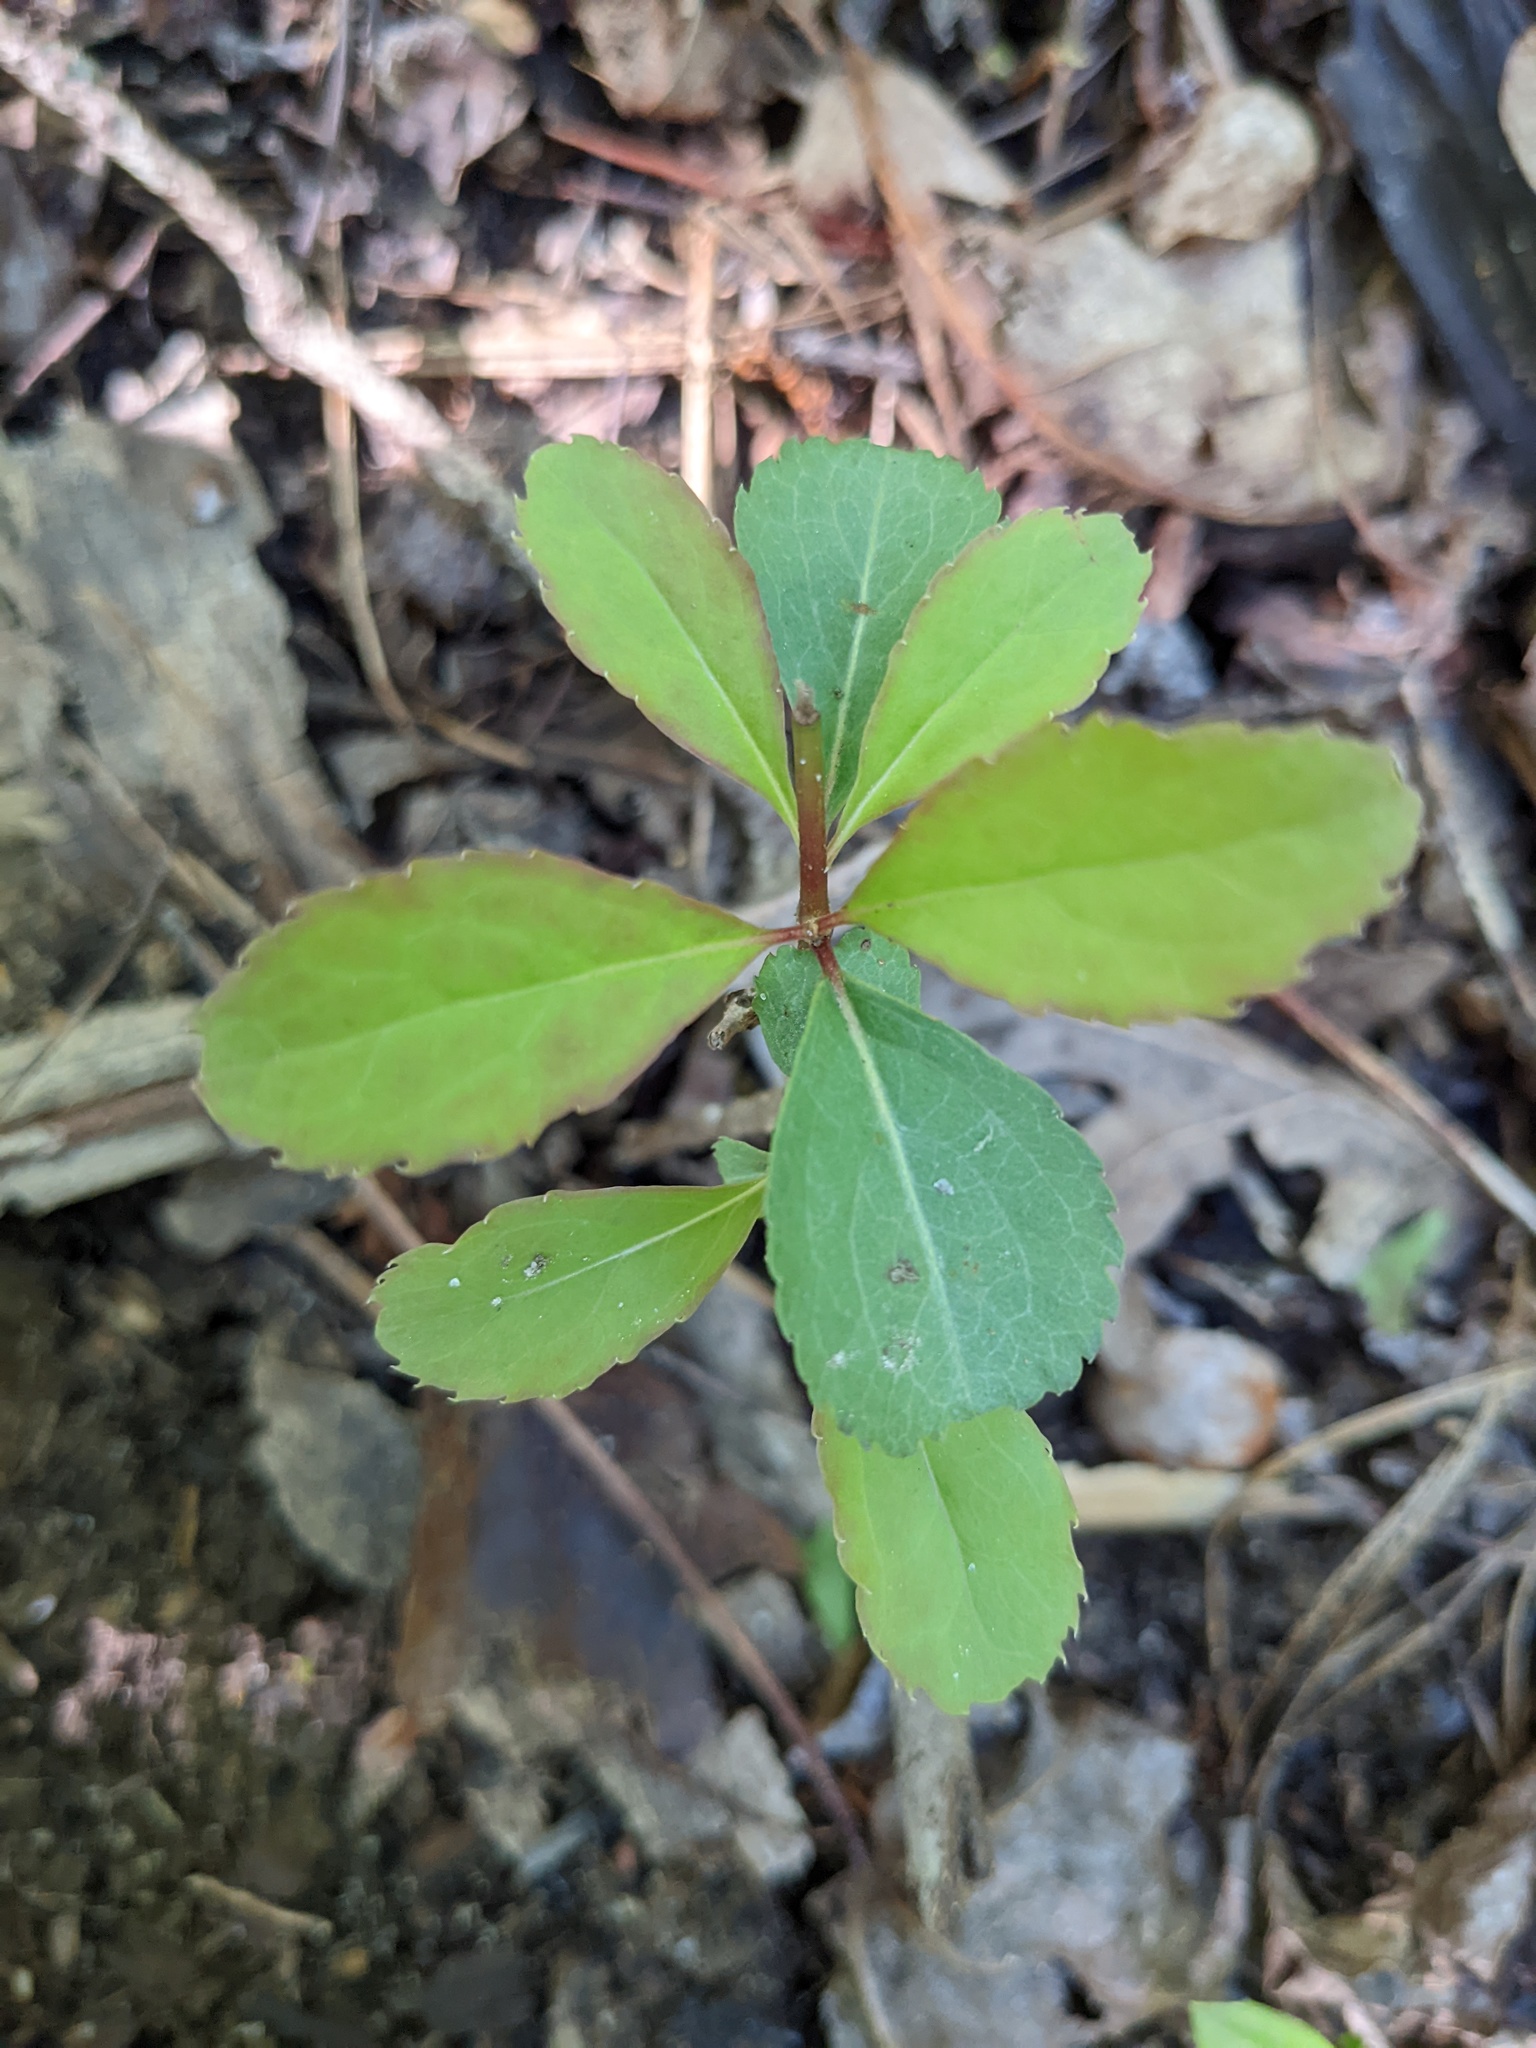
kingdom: Plantae
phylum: Tracheophyta
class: Magnoliopsida
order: Dipsacales
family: Viburnaceae
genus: Viburnum
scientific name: Viburnum prunifolium
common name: Black haw
